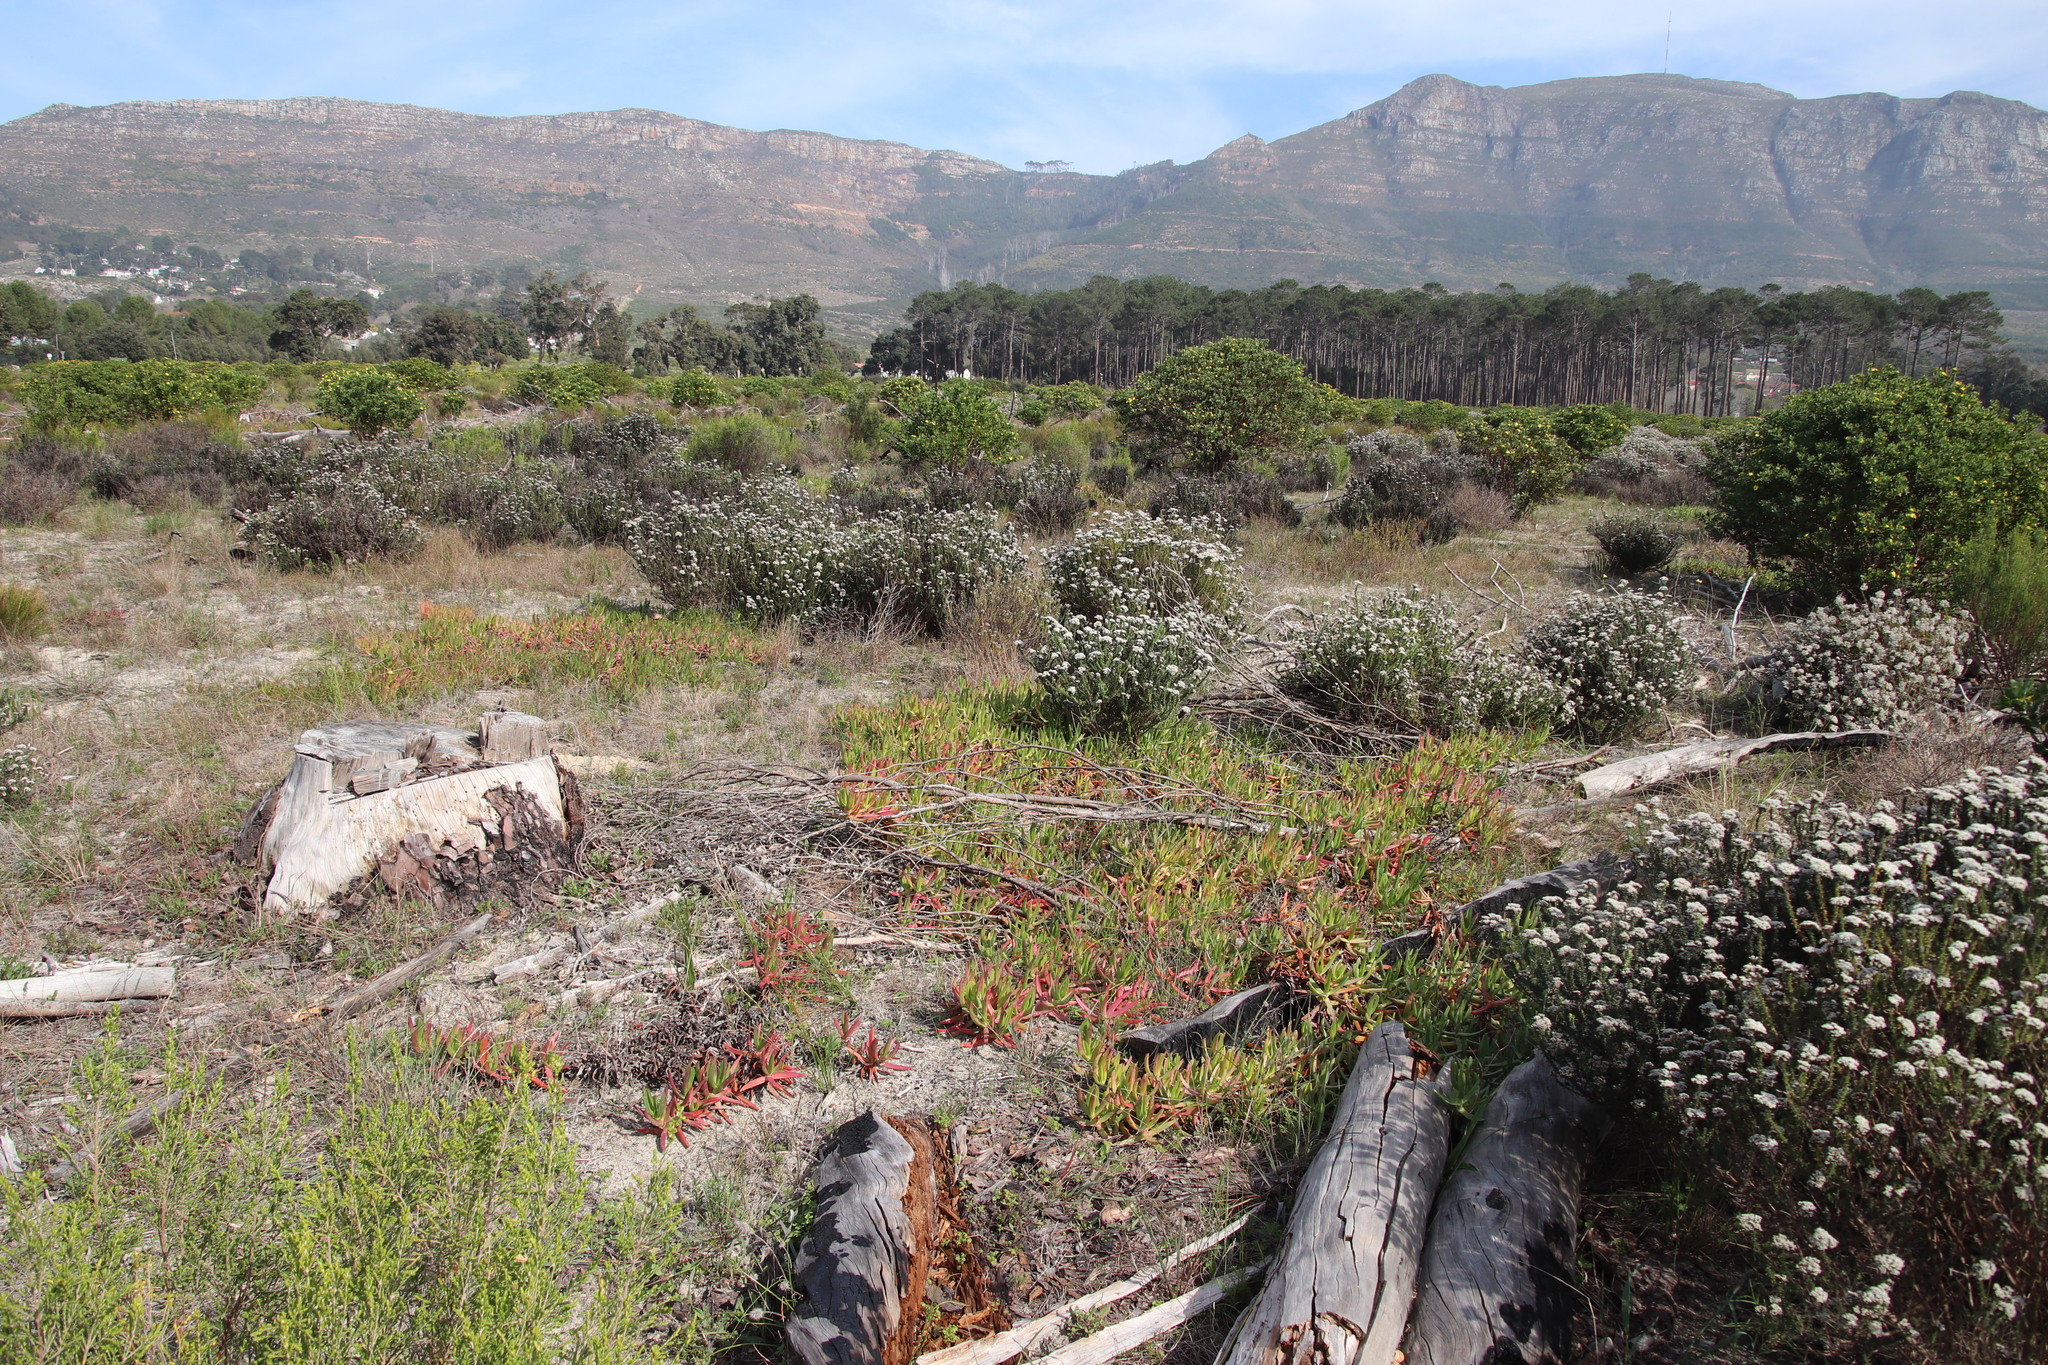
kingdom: Plantae
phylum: Tracheophyta
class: Magnoliopsida
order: Caryophyllales
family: Aizoaceae
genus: Carpobrotus
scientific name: Carpobrotus edulis
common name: Hottentot-fig
